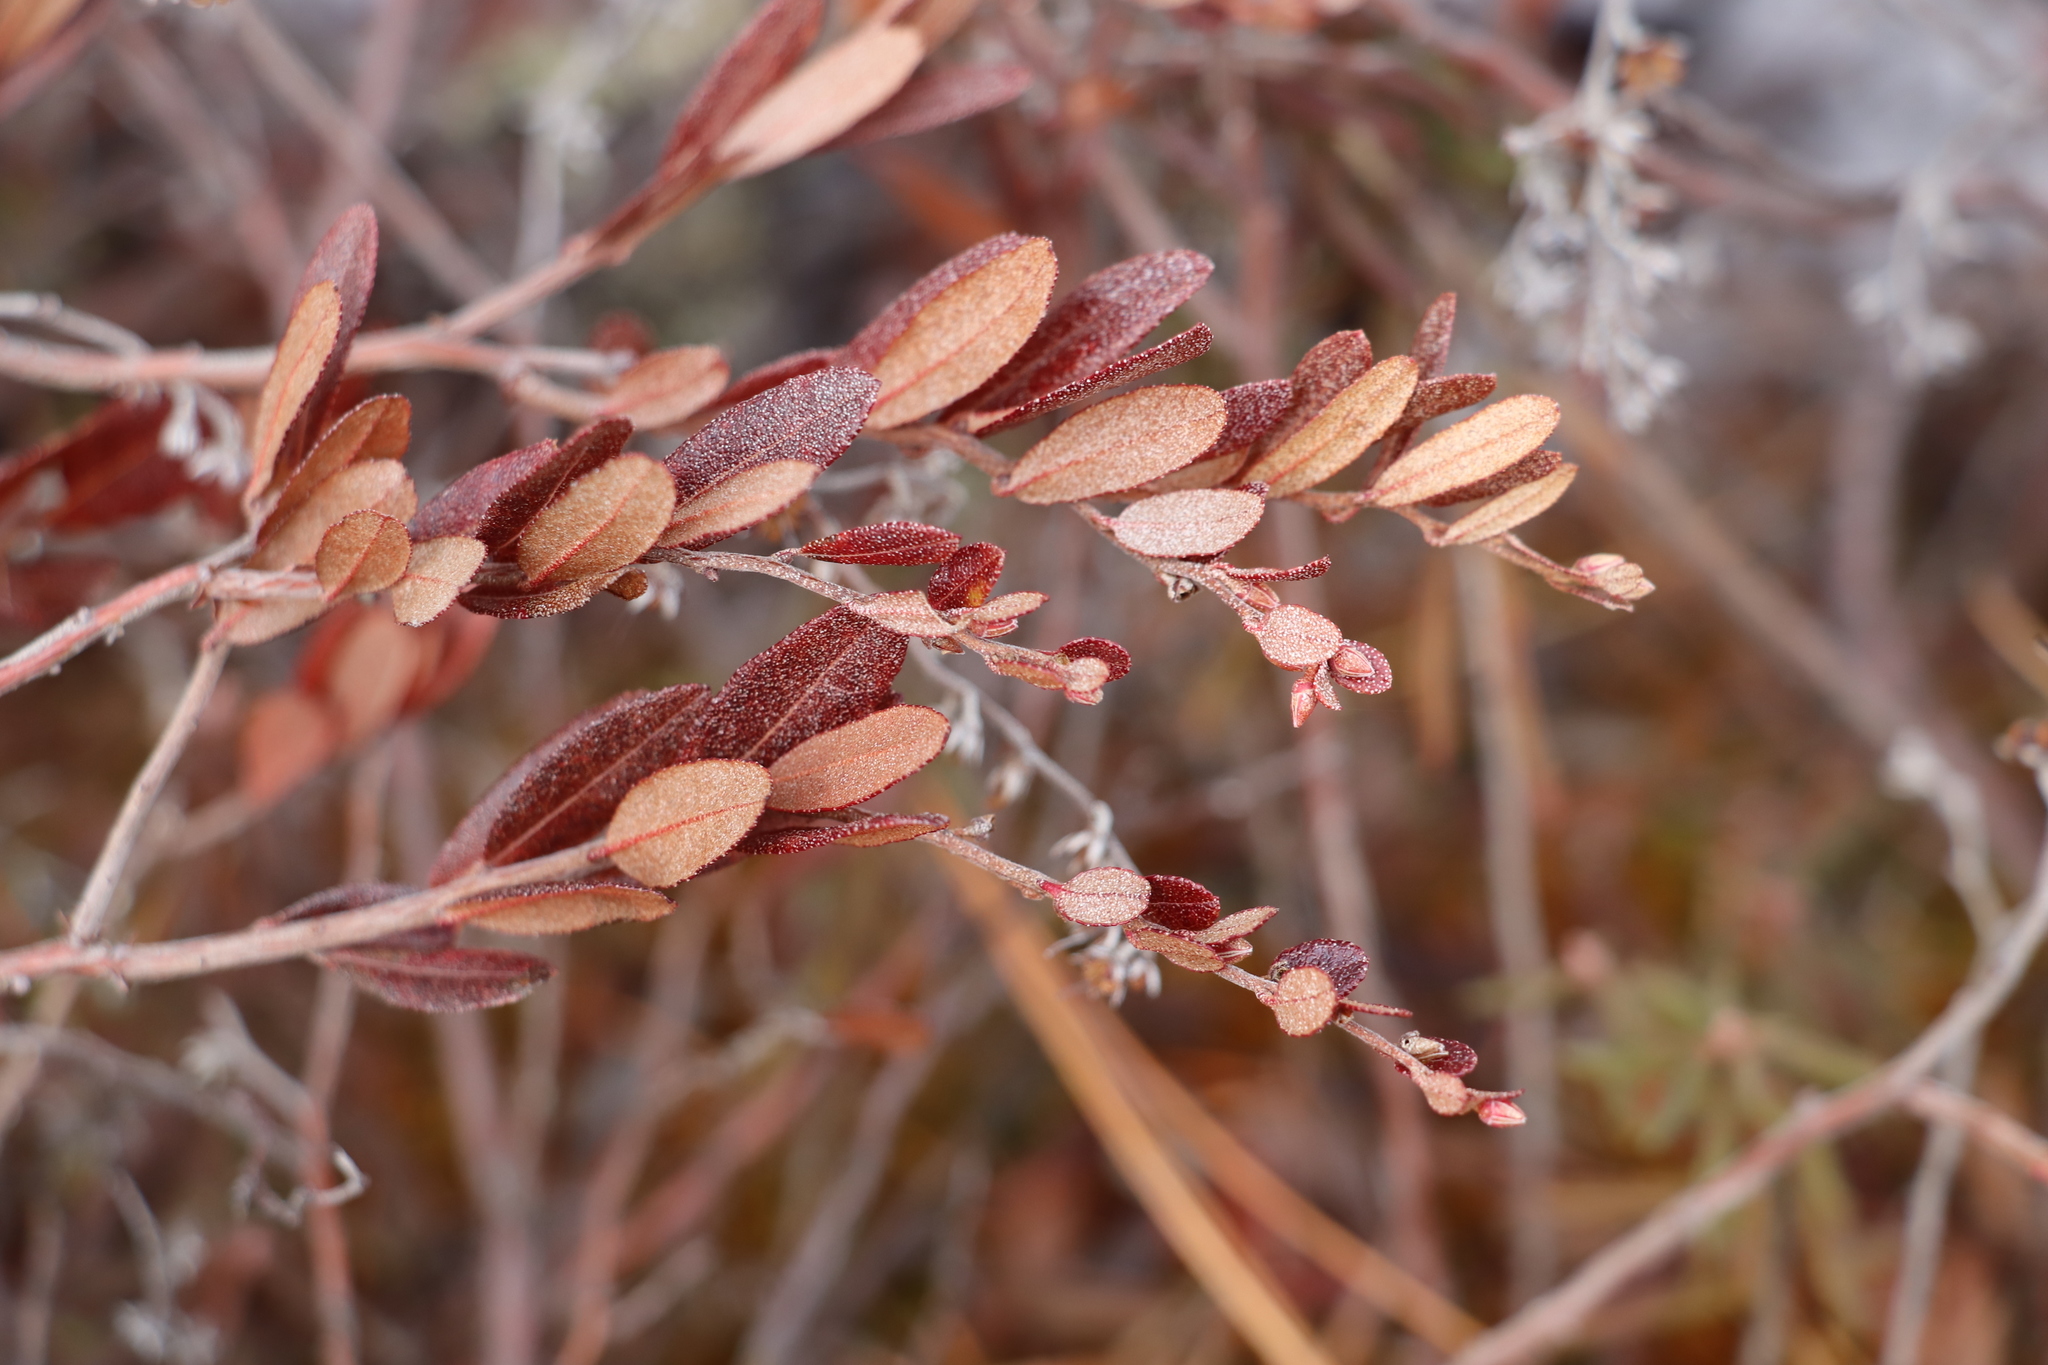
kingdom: Plantae
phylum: Tracheophyta
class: Magnoliopsida
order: Ericales
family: Ericaceae
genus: Chamaedaphne
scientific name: Chamaedaphne calyculata
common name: Leatherleaf
